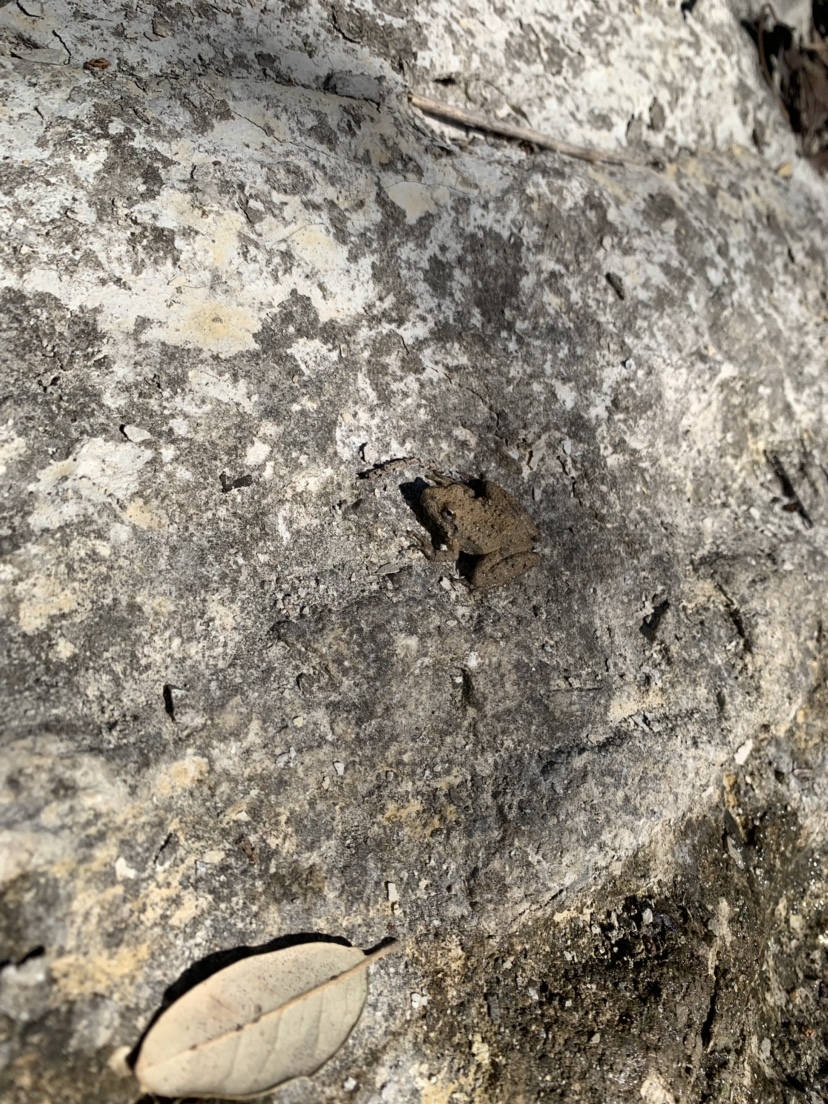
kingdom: Animalia
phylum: Chordata
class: Amphibia
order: Anura
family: Hylidae
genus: Acris
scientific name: Acris blanchardi
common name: Blanchard's cricket frog
